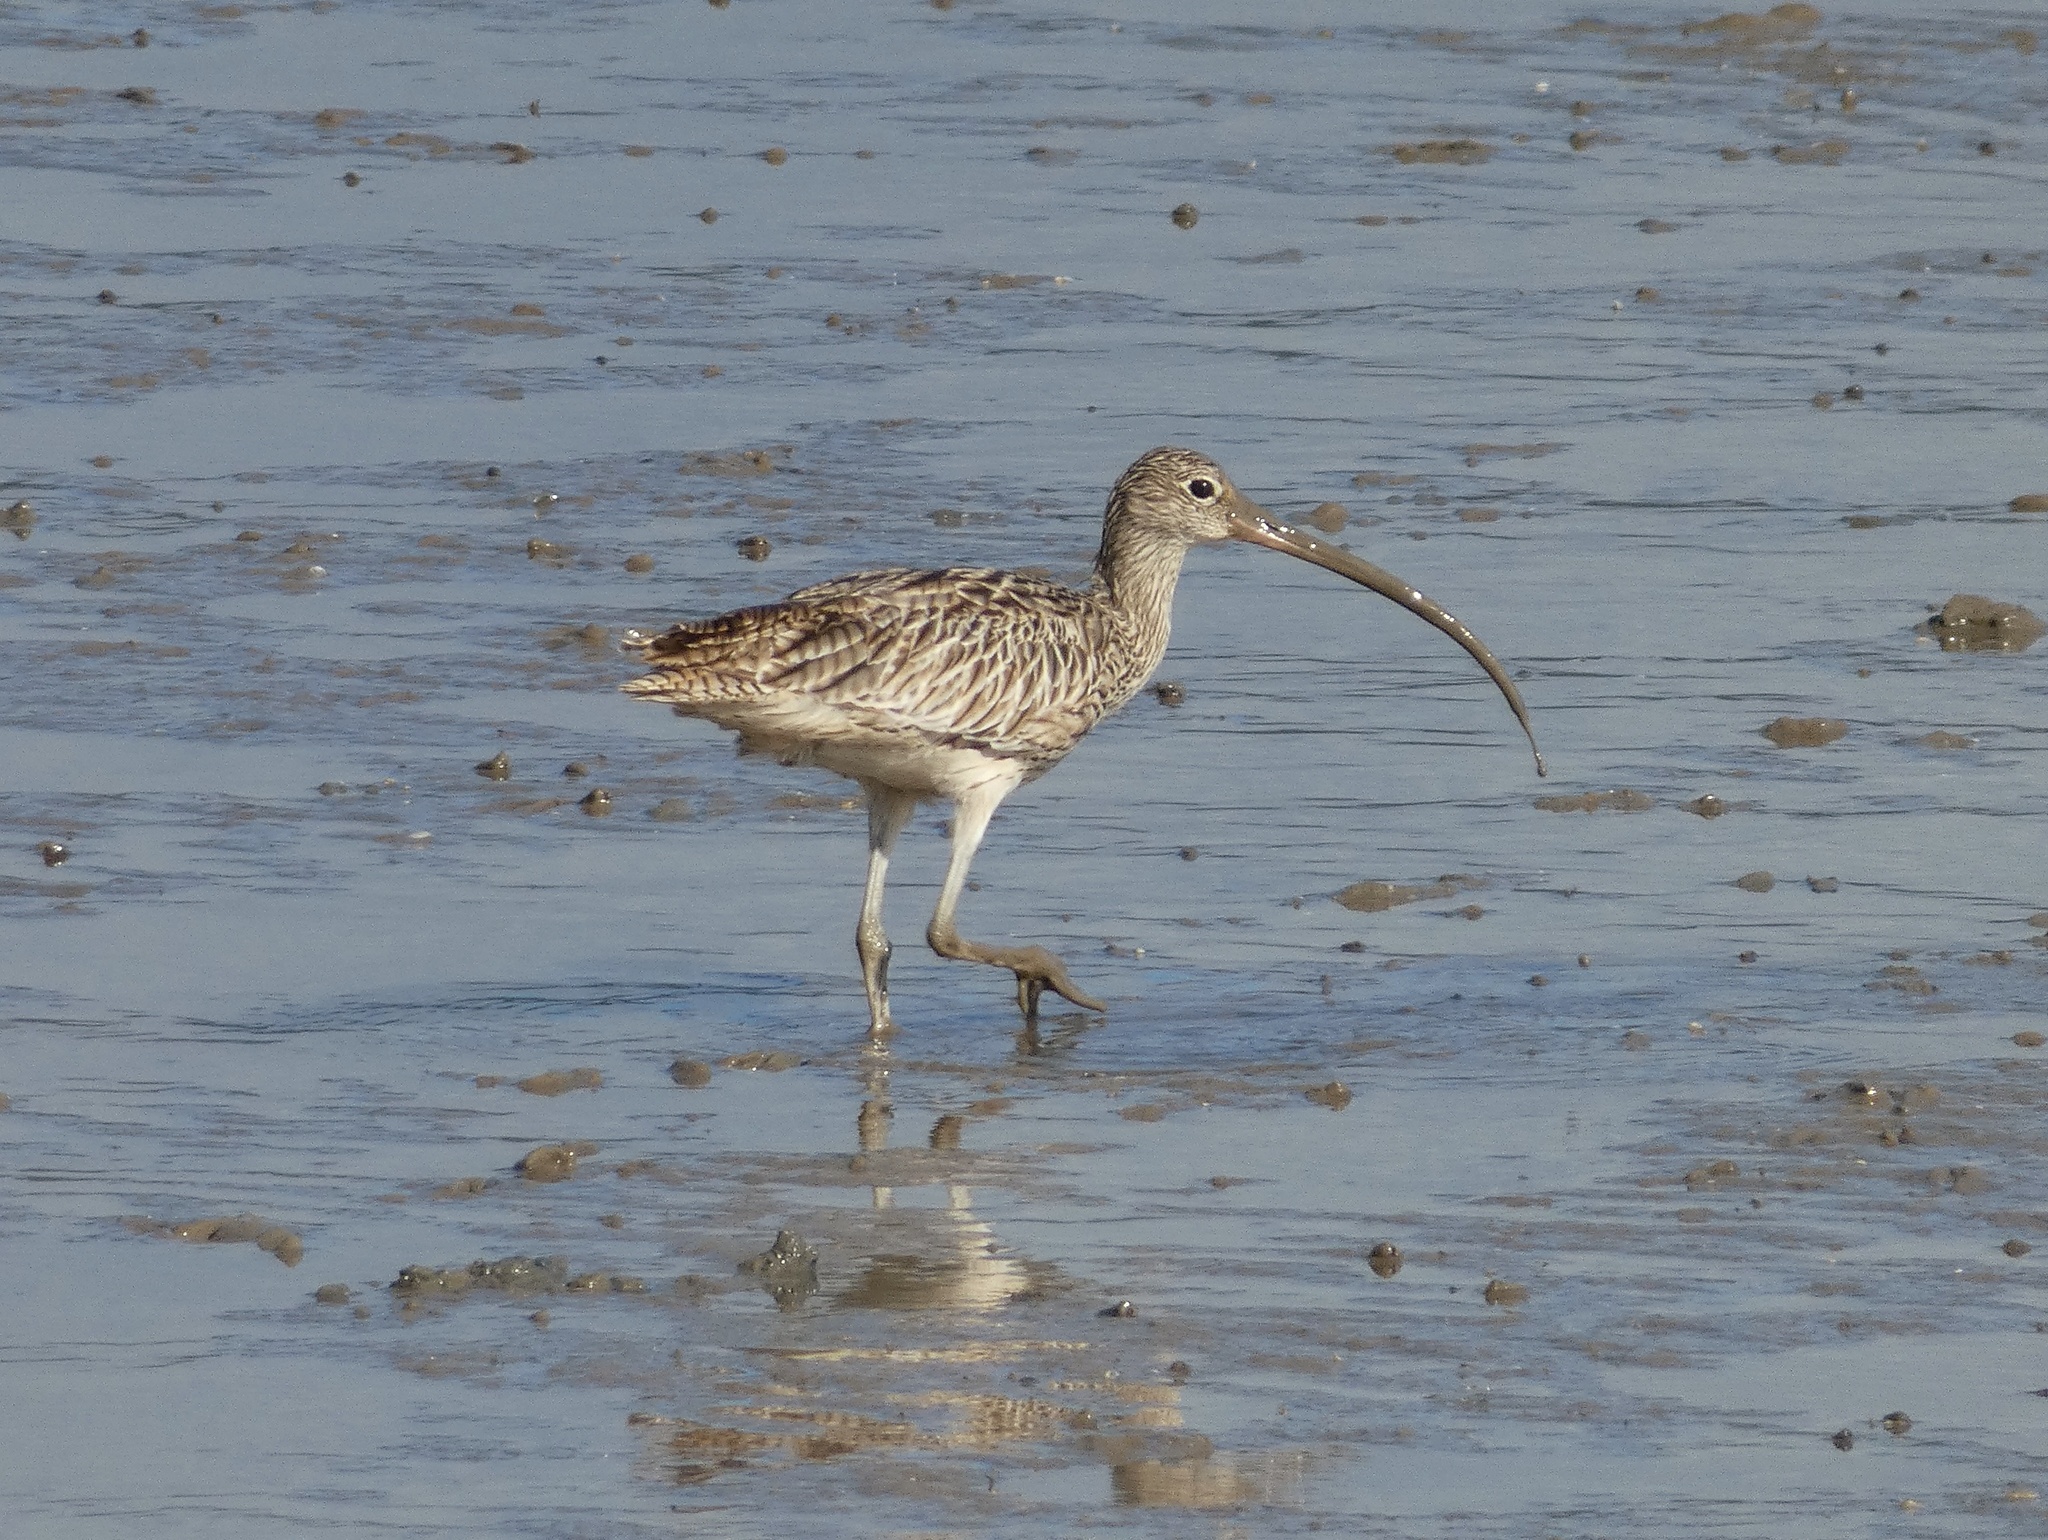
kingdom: Animalia
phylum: Chordata
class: Aves
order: Charadriiformes
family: Scolopacidae
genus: Numenius
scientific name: Numenius madagascariensis
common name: Far eastern curlew
